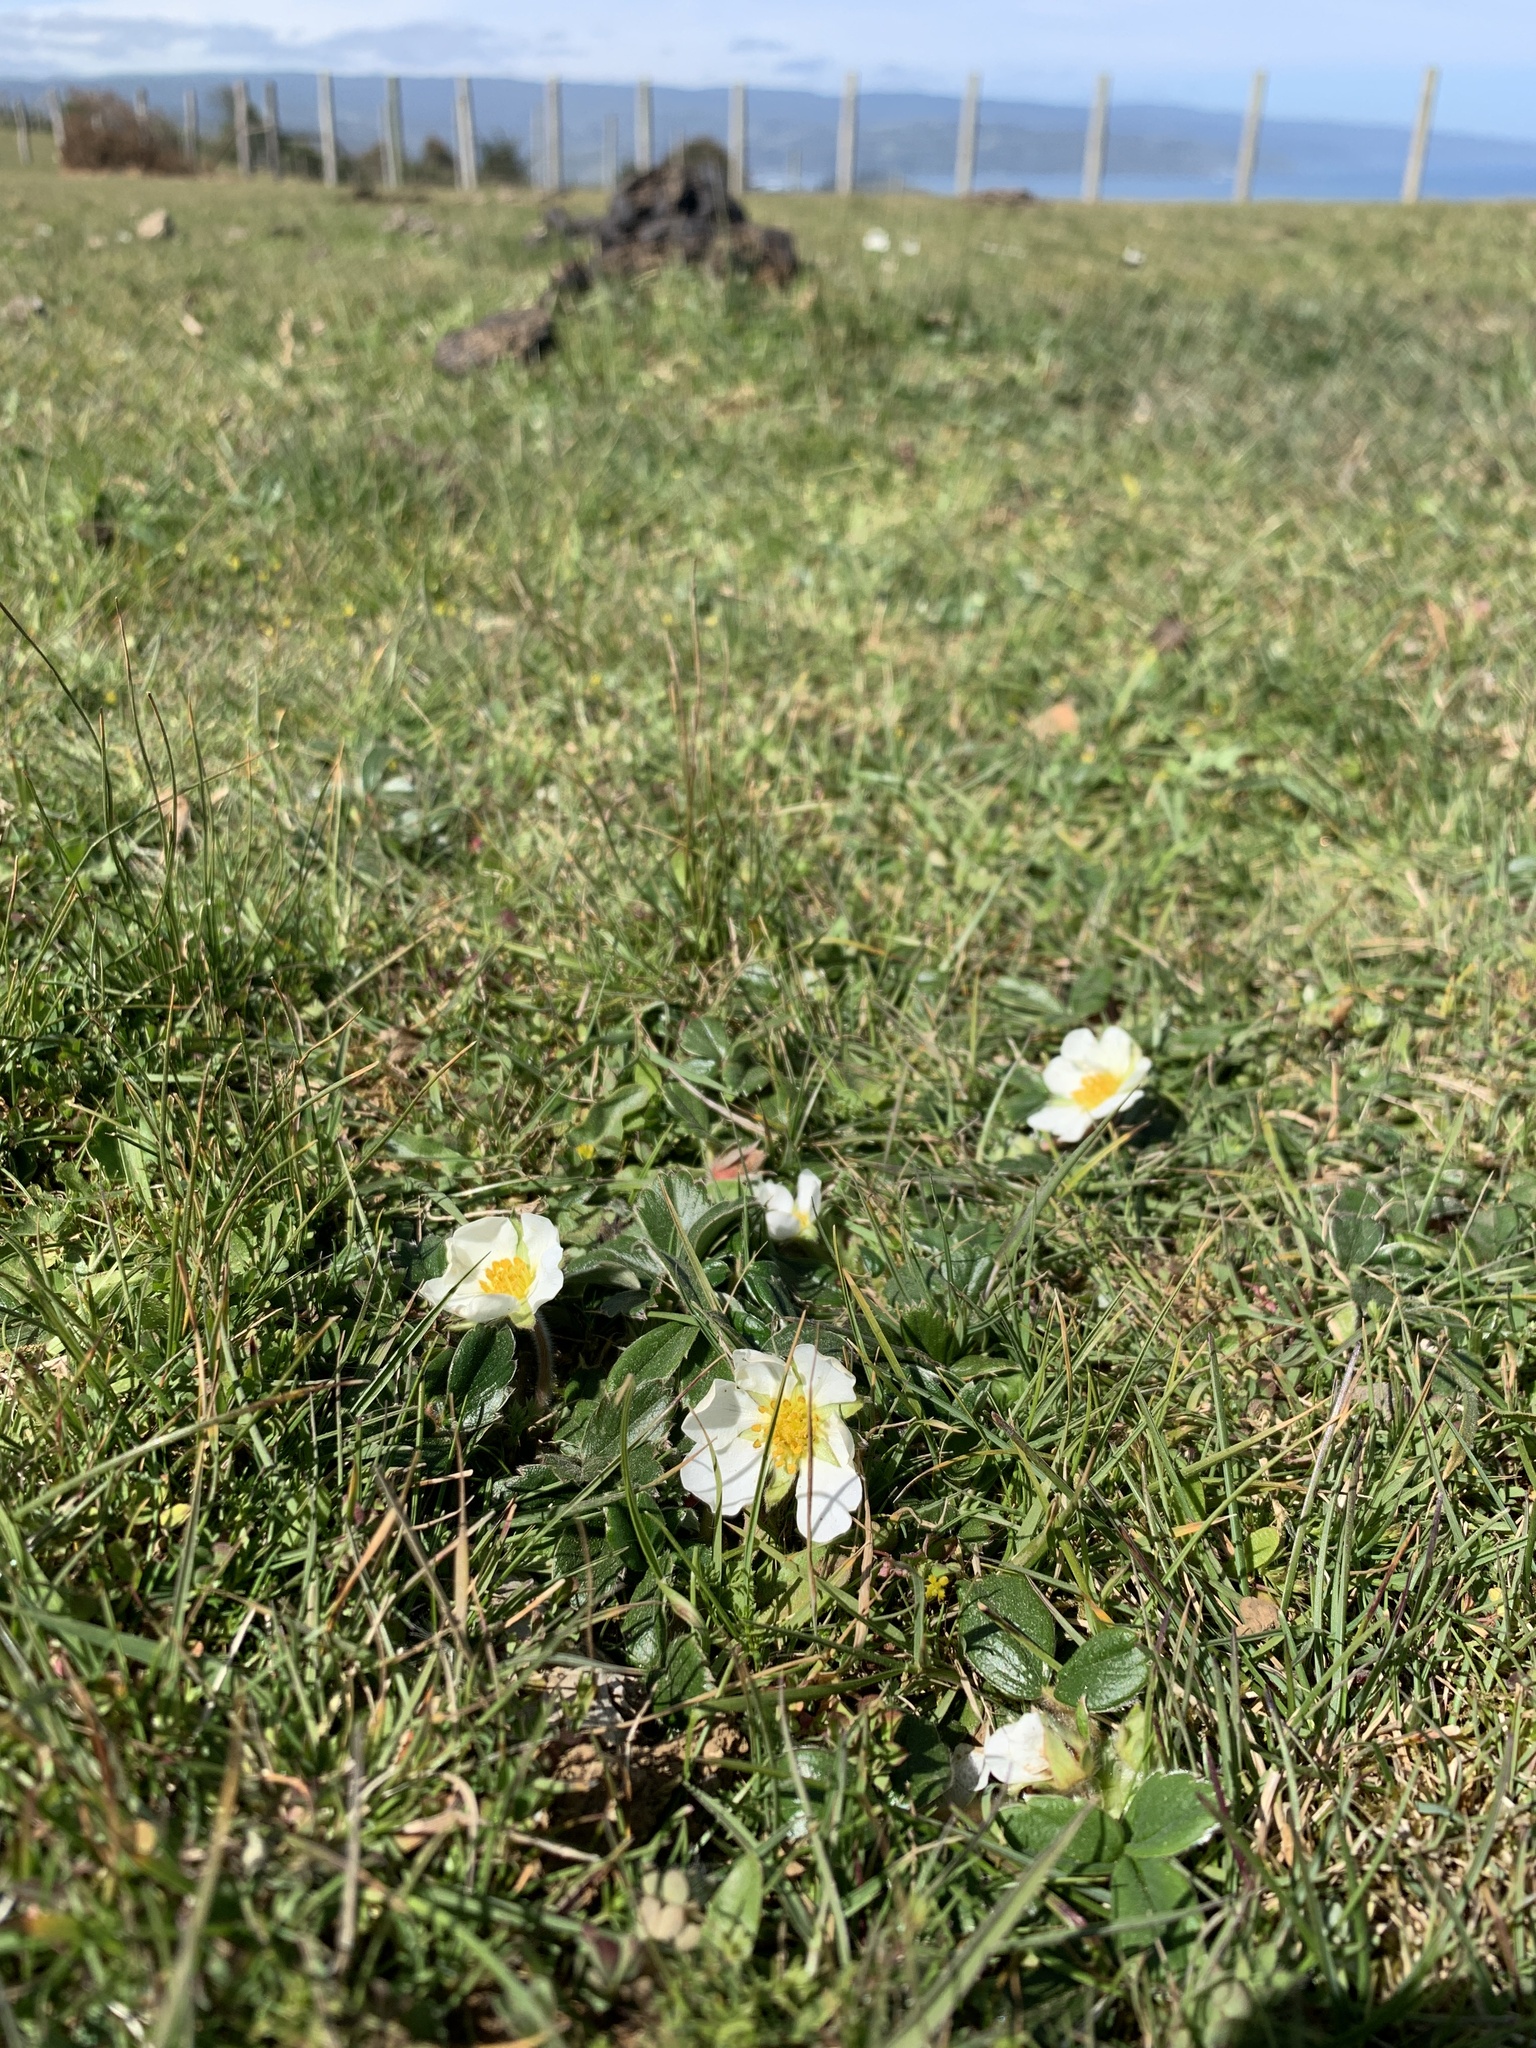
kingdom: Plantae
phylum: Tracheophyta
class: Magnoliopsida
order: Rosales
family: Rosaceae
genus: Fragaria
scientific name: Fragaria chiloensis
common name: Beach strawberry
